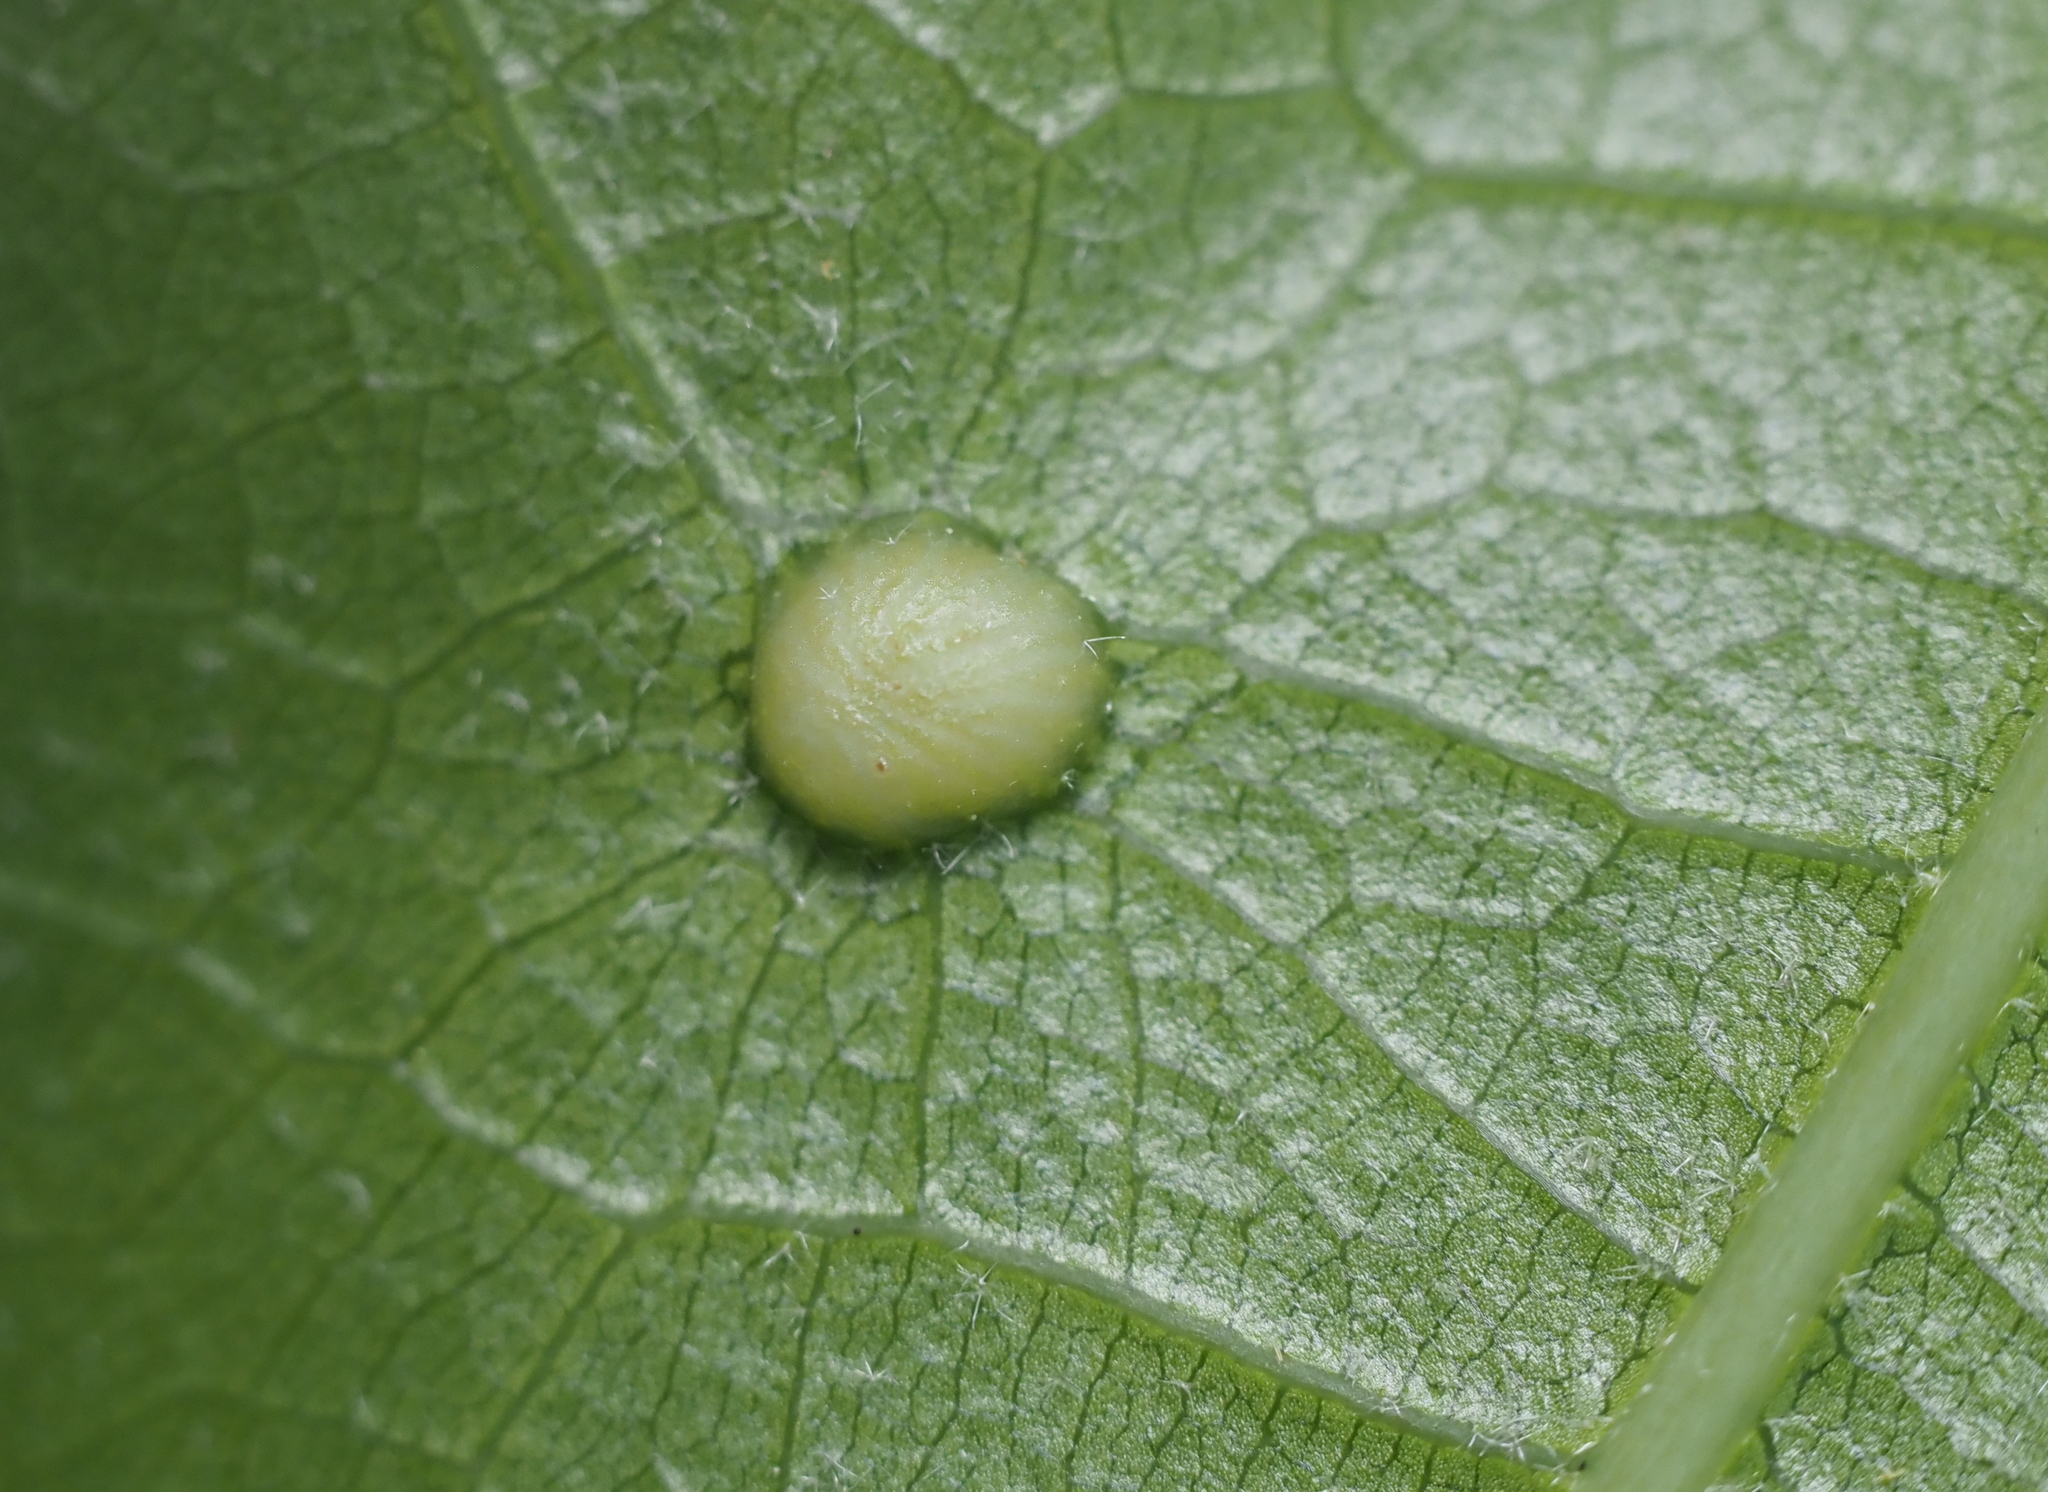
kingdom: Animalia
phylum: Arthropoda
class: Insecta
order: Hymenoptera
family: Cynipidae
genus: Dryocosmus
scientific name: Dryocosmus
